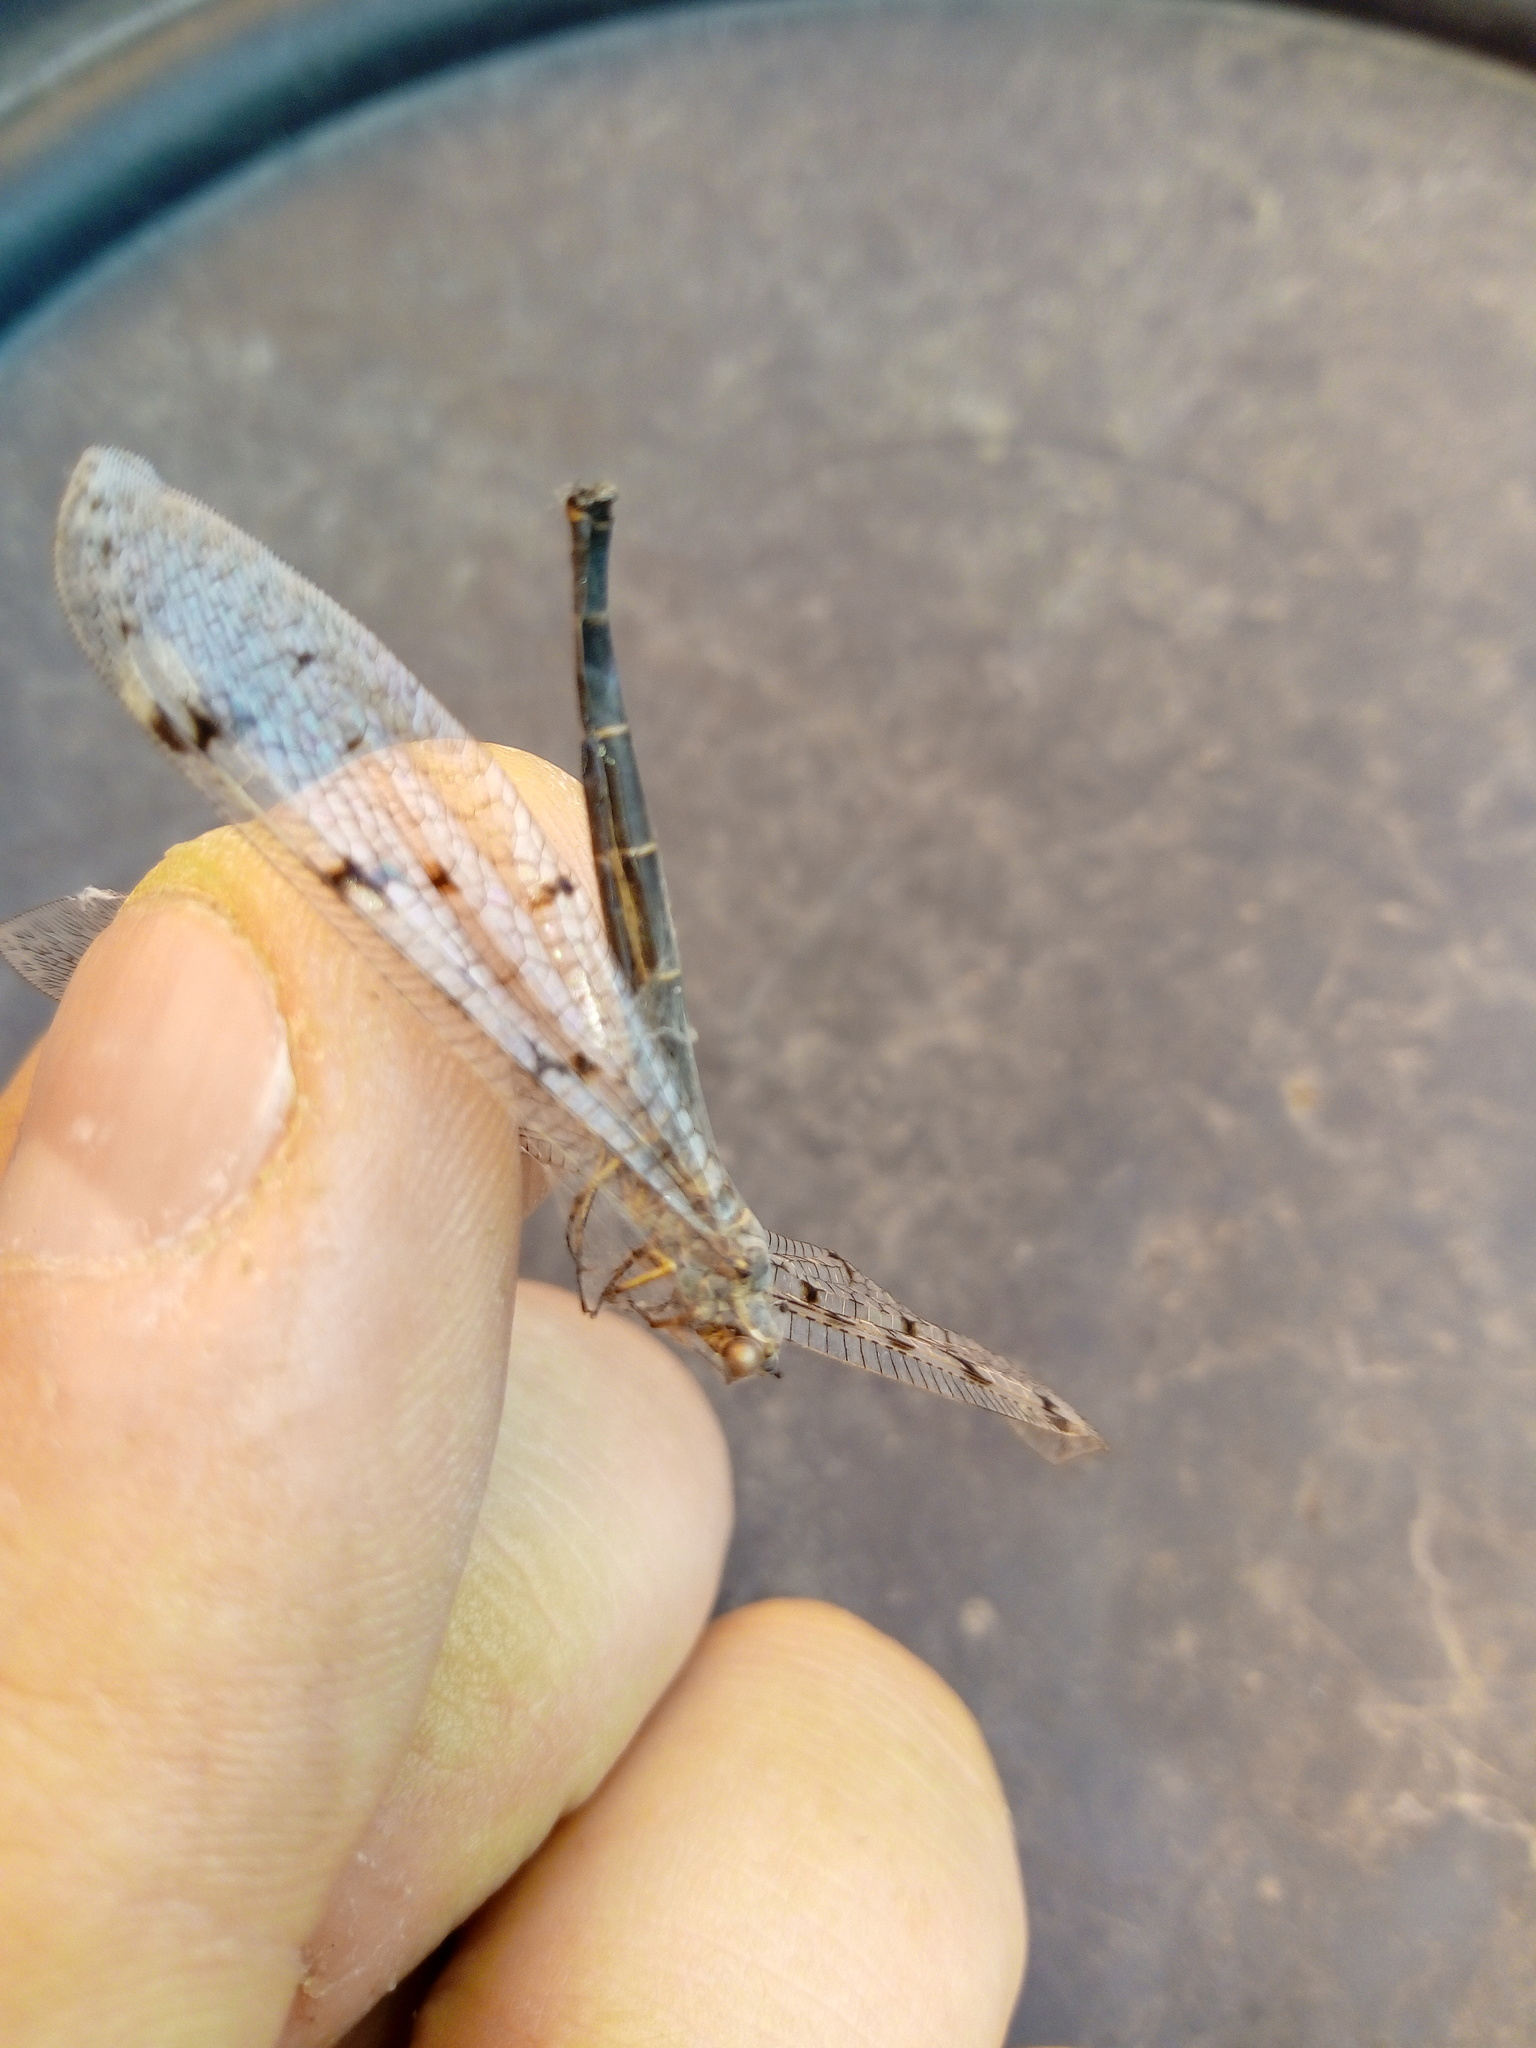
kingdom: Animalia
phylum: Arthropoda
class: Insecta
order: Neuroptera
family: Myrmeleontidae
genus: Euroleon
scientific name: Euroleon nostras
